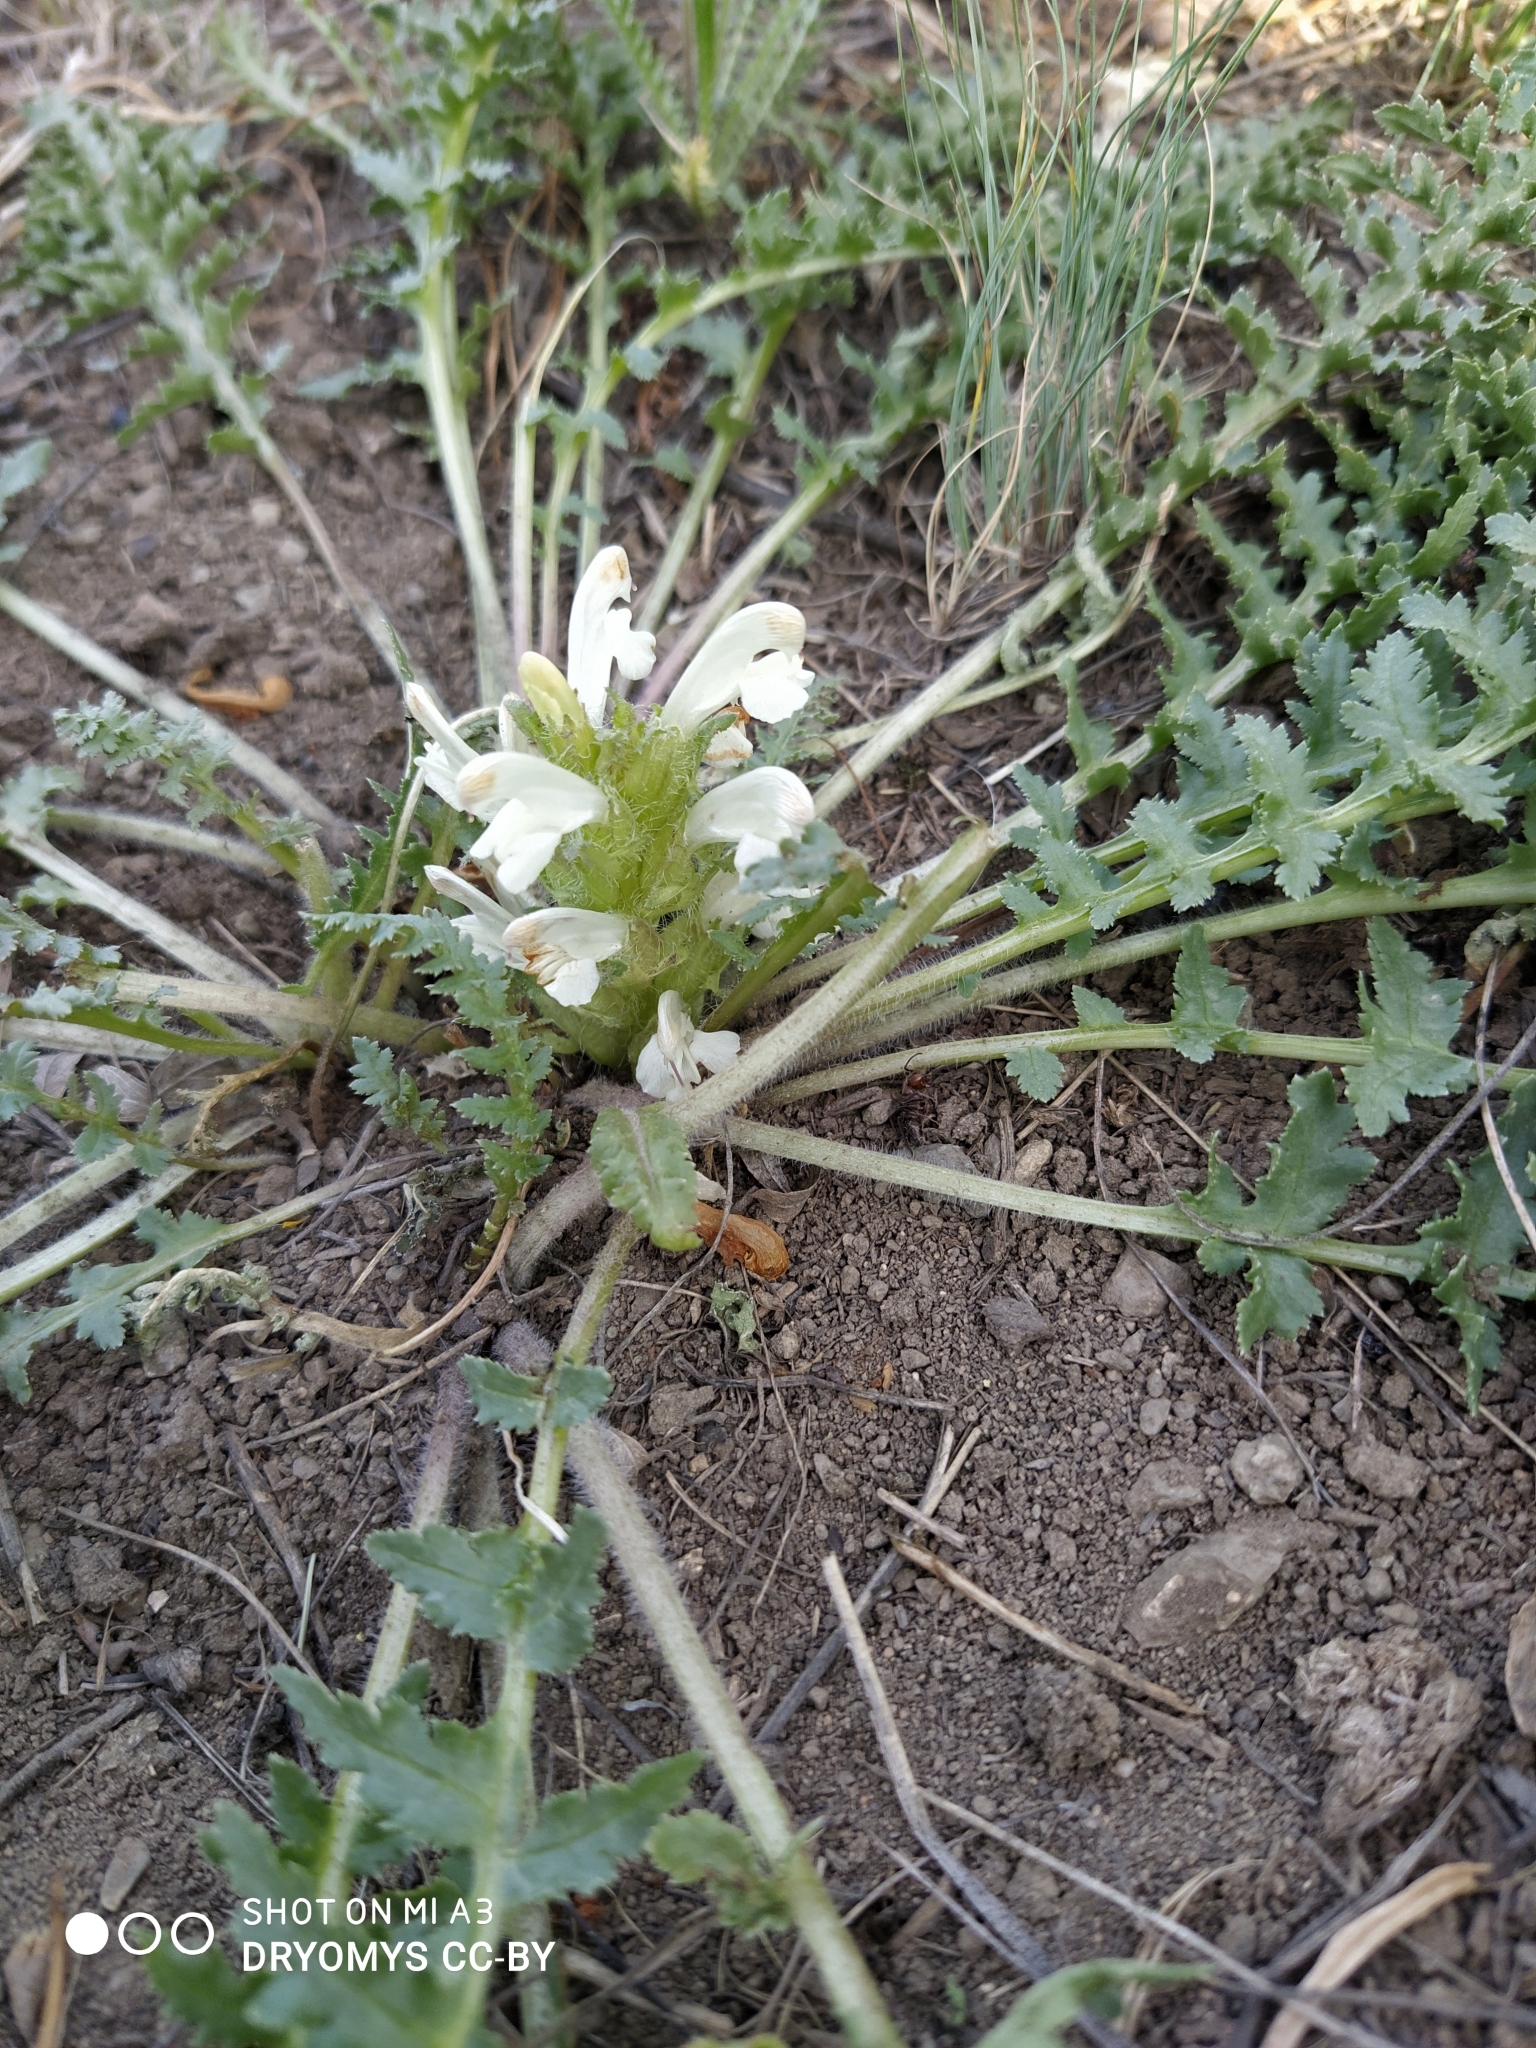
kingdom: Plantae
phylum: Tracheophyta
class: Magnoliopsida
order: Lamiales
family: Orobanchaceae
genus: Pedicularis
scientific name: Pedicularis physocalyx
